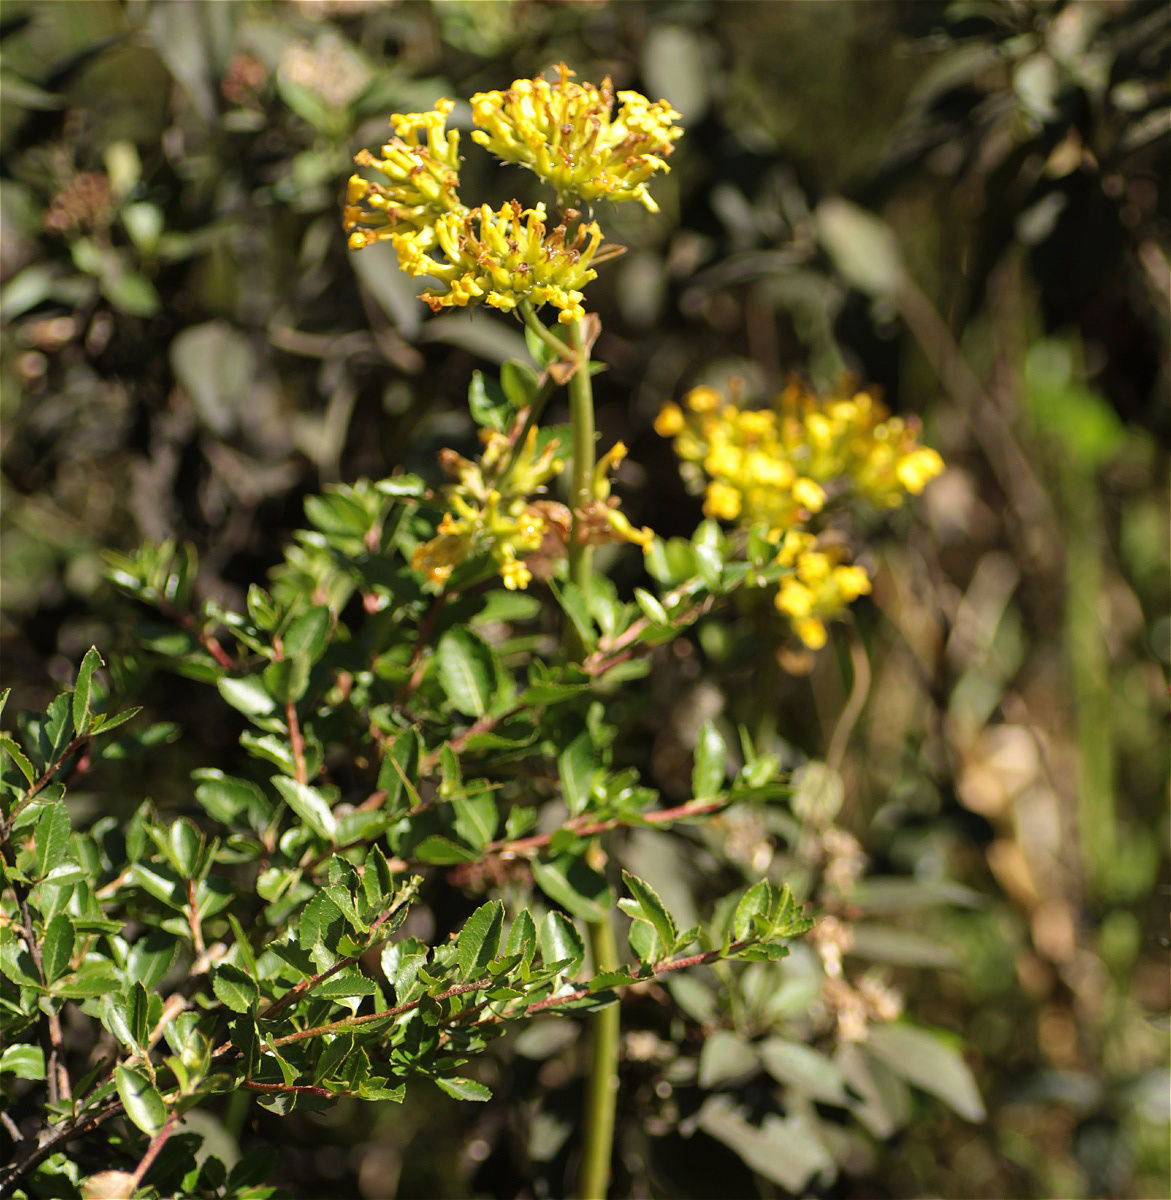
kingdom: Plantae
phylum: Tracheophyta
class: Magnoliopsida
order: Saxifragales
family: Crassulaceae
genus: Kalanchoe
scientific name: Kalanchoe densiflora
